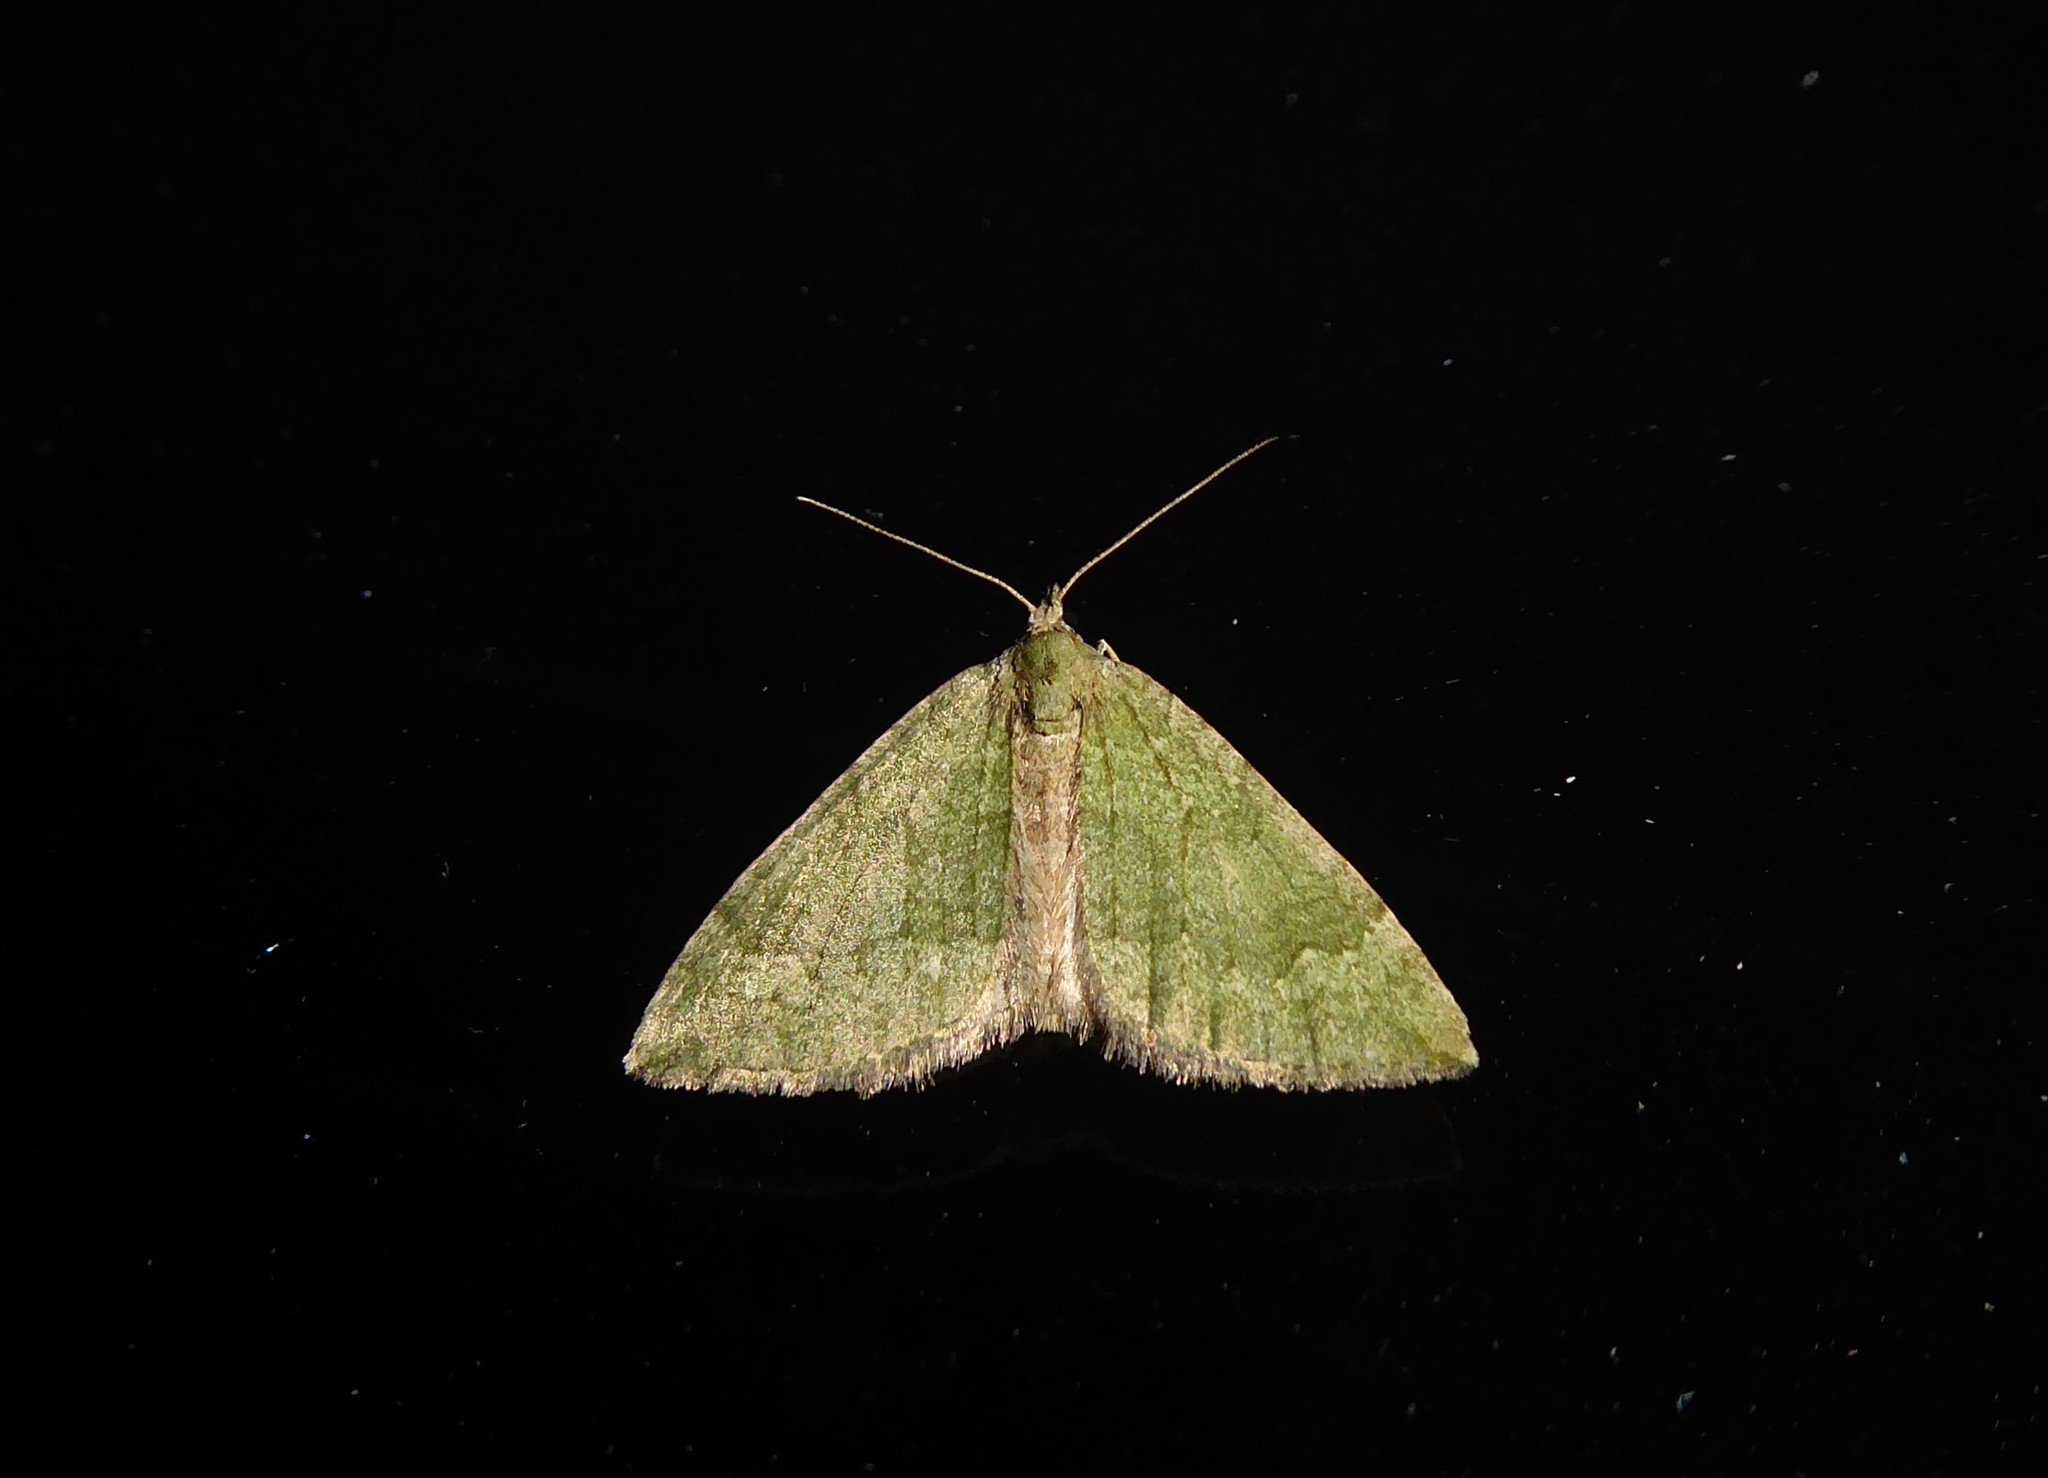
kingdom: Animalia
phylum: Arthropoda
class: Insecta
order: Lepidoptera
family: Geometridae
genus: Epyaxa
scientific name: Epyaxa rosearia
